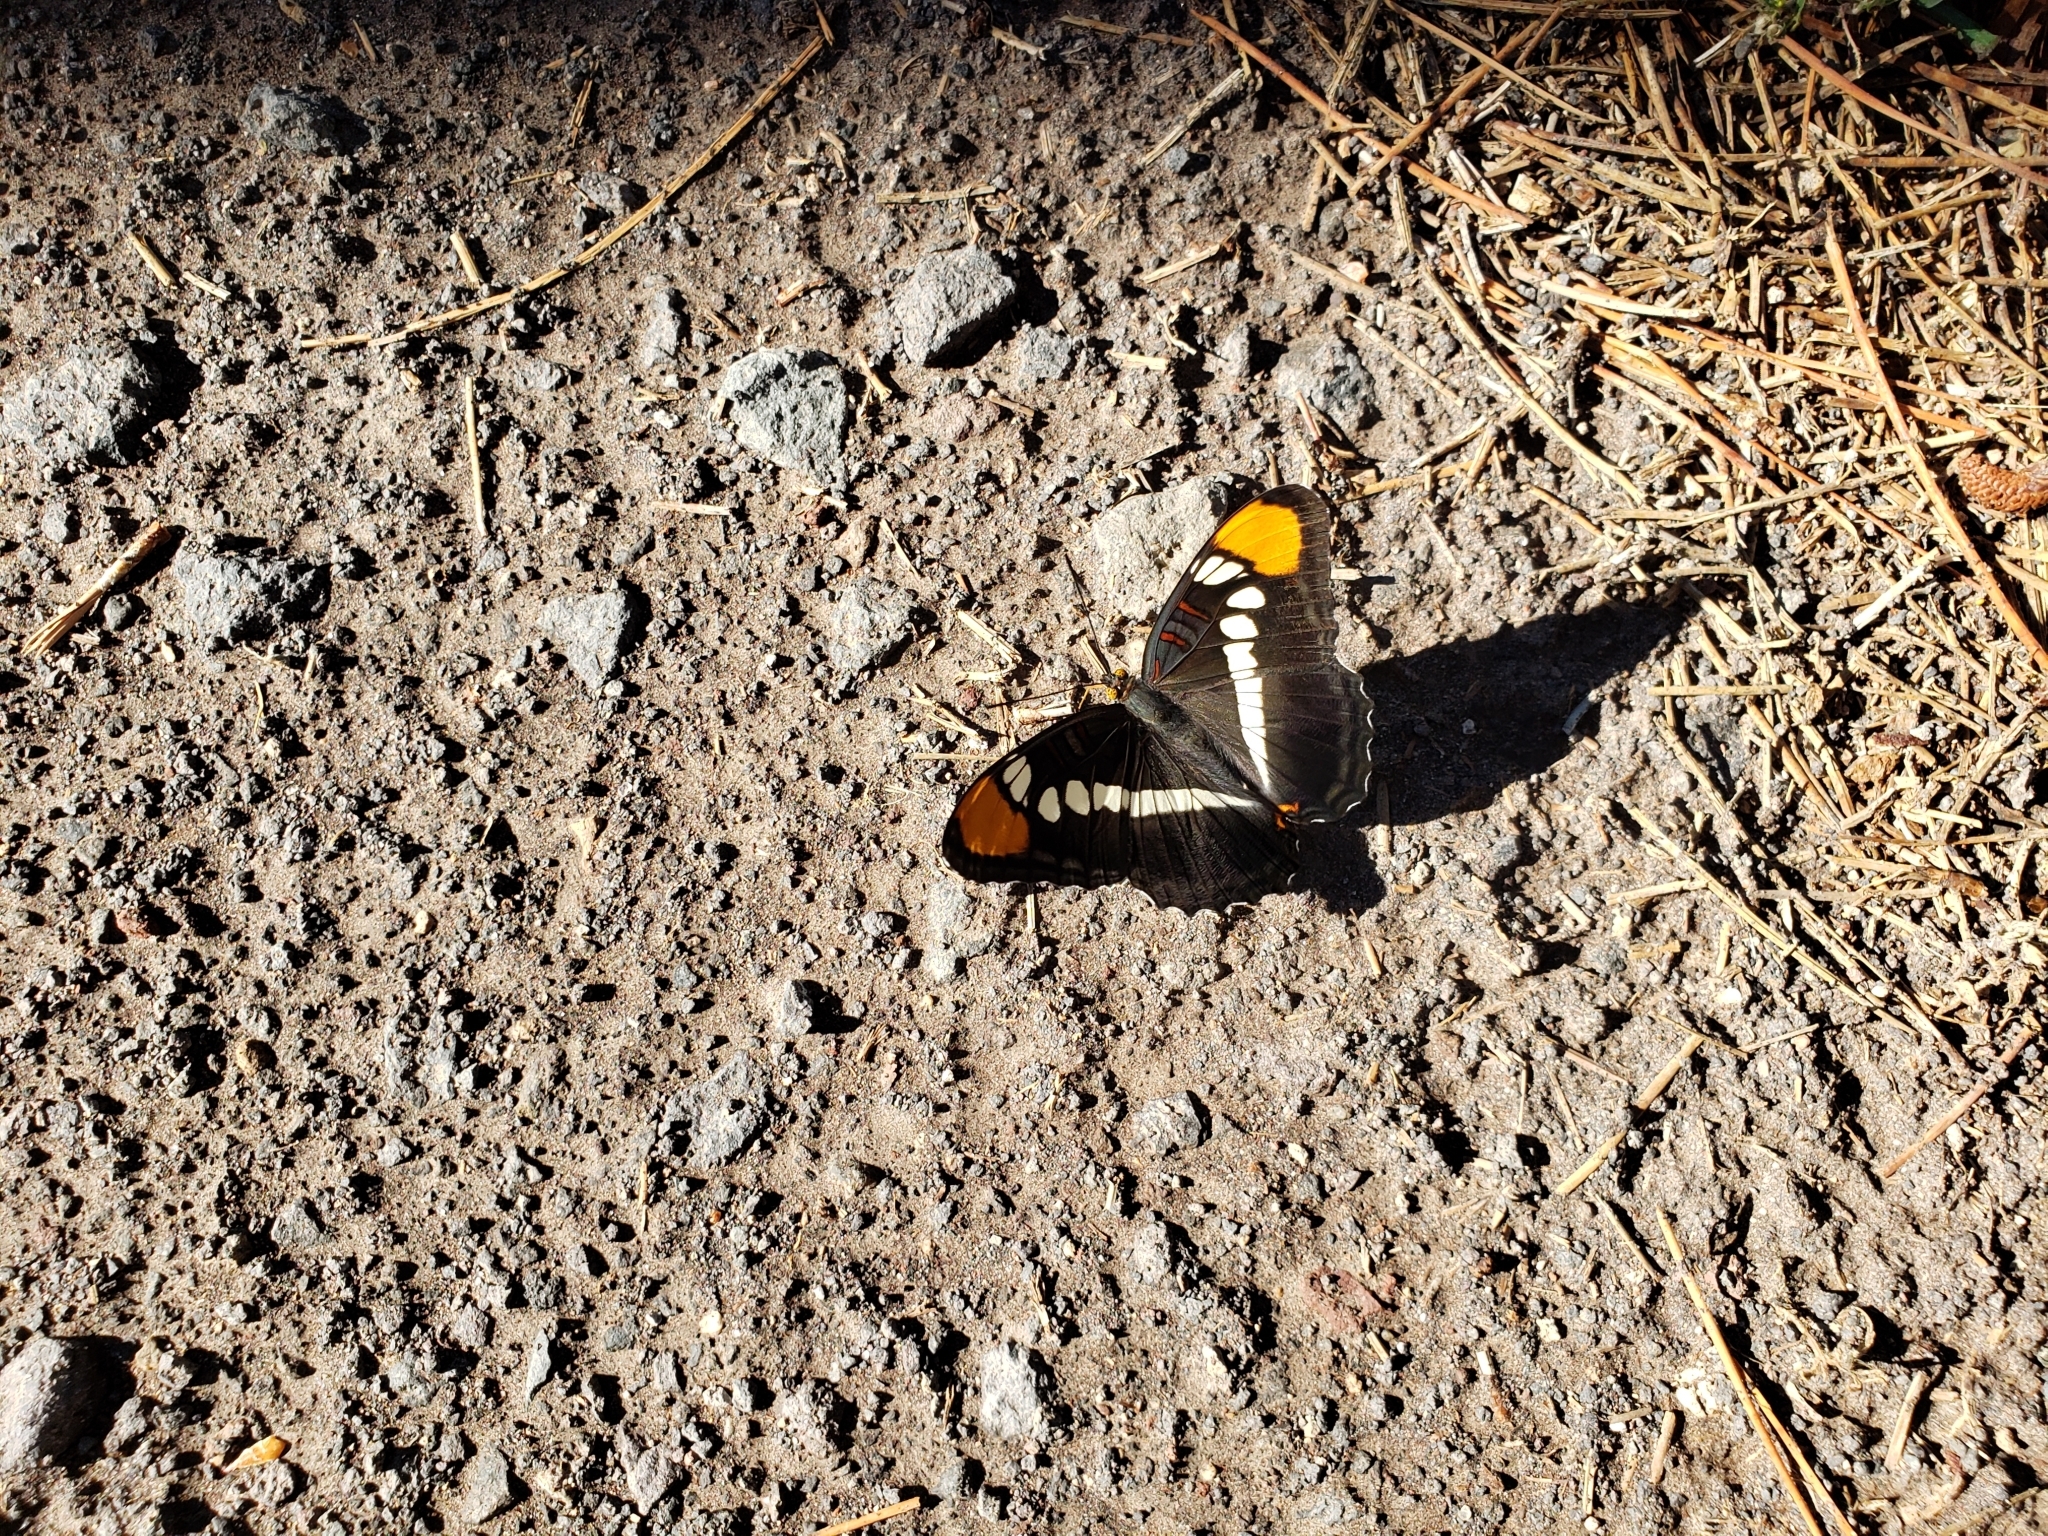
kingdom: Animalia
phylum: Arthropoda
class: Insecta
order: Lepidoptera
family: Nymphalidae
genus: Limenitis
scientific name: Limenitis bredowii
